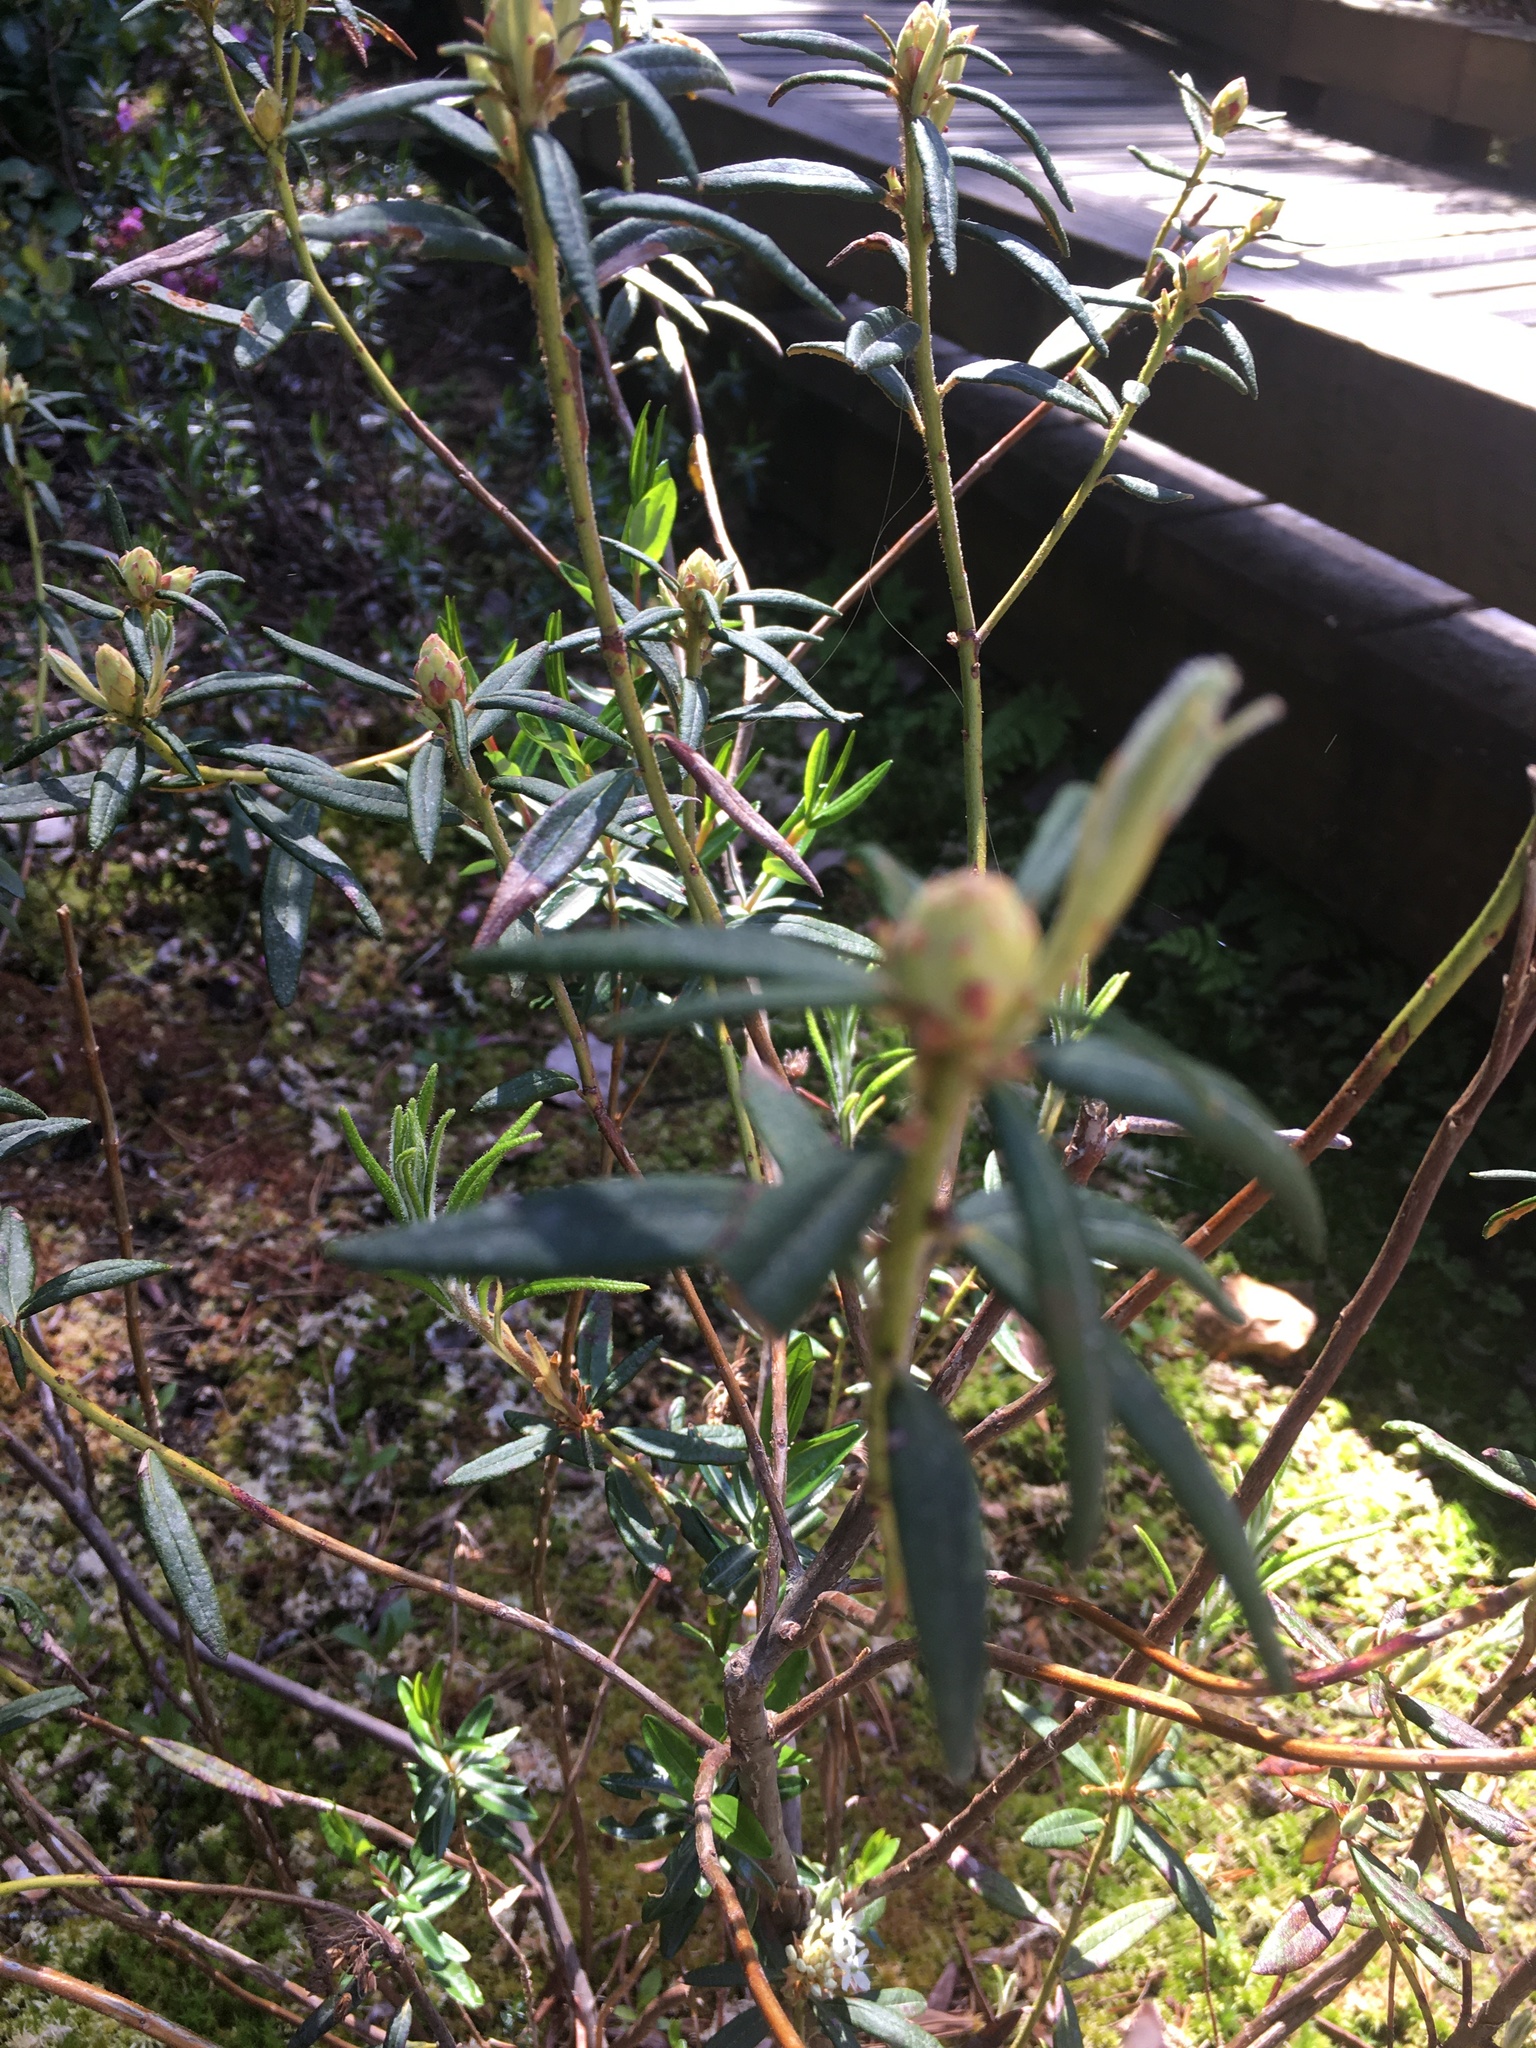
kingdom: Plantae
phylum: Tracheophyta
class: Magnoliopsida
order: Ericales
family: Ericaceae
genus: Rhododendron
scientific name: Rhododendron groenlandicum
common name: Bog labrador tea
